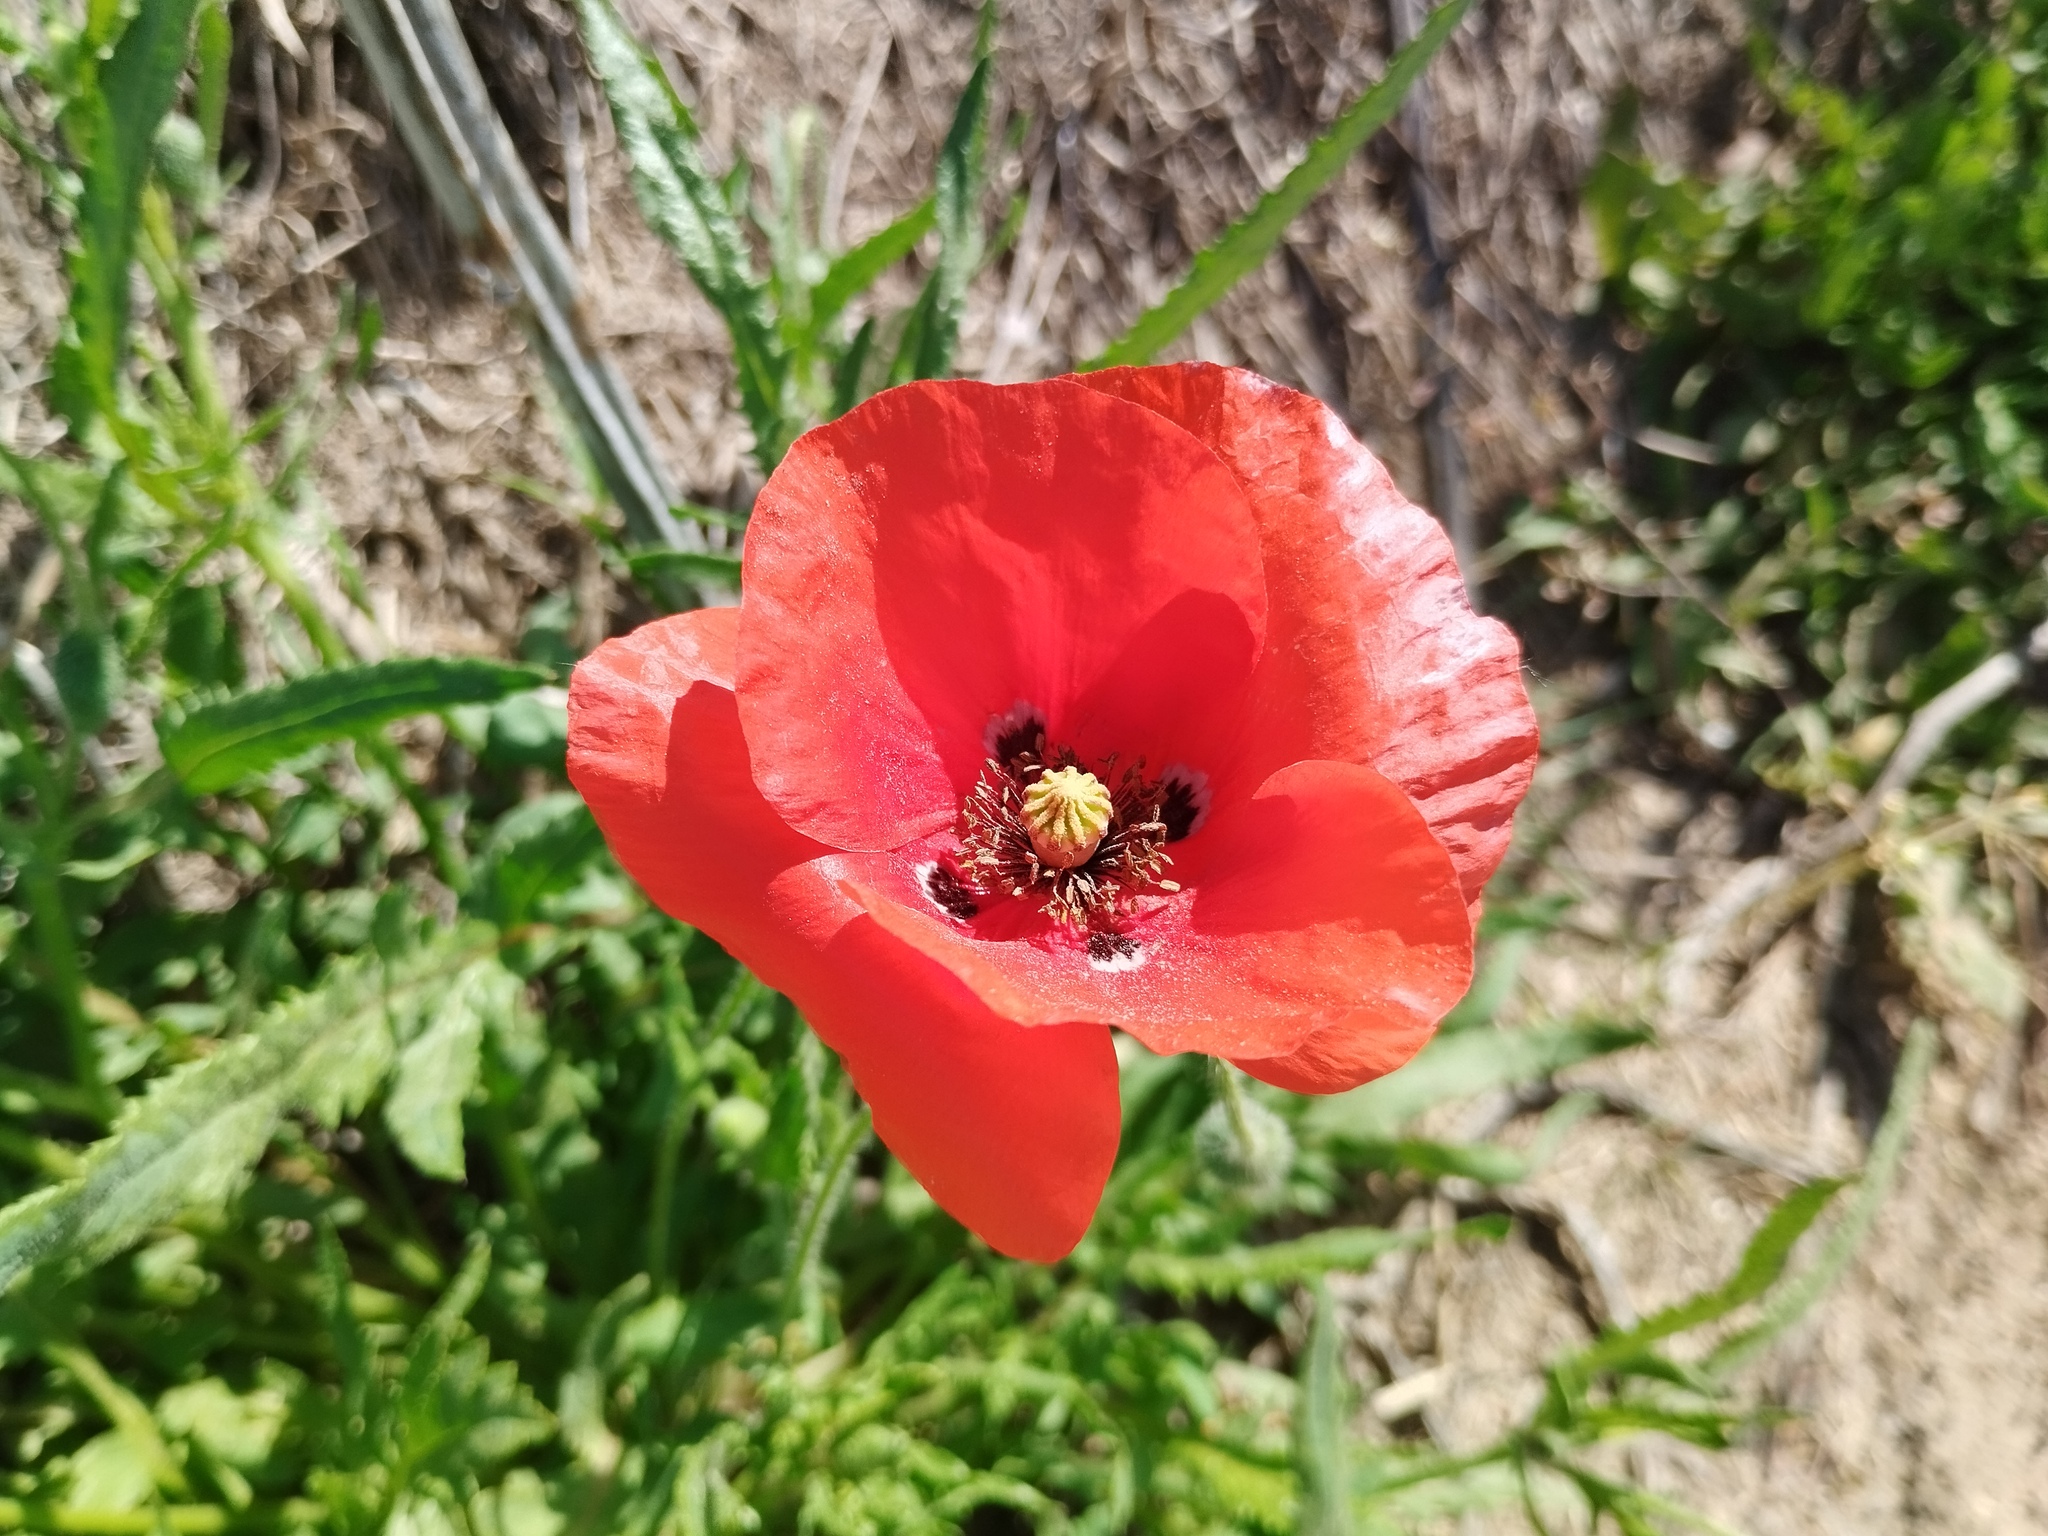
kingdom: Plantae
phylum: Tracheophyta
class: Magnoliopsida
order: Ranunculales
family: Papaveraceae
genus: Papaver
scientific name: Papaver rhoeas
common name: Corn poppy
